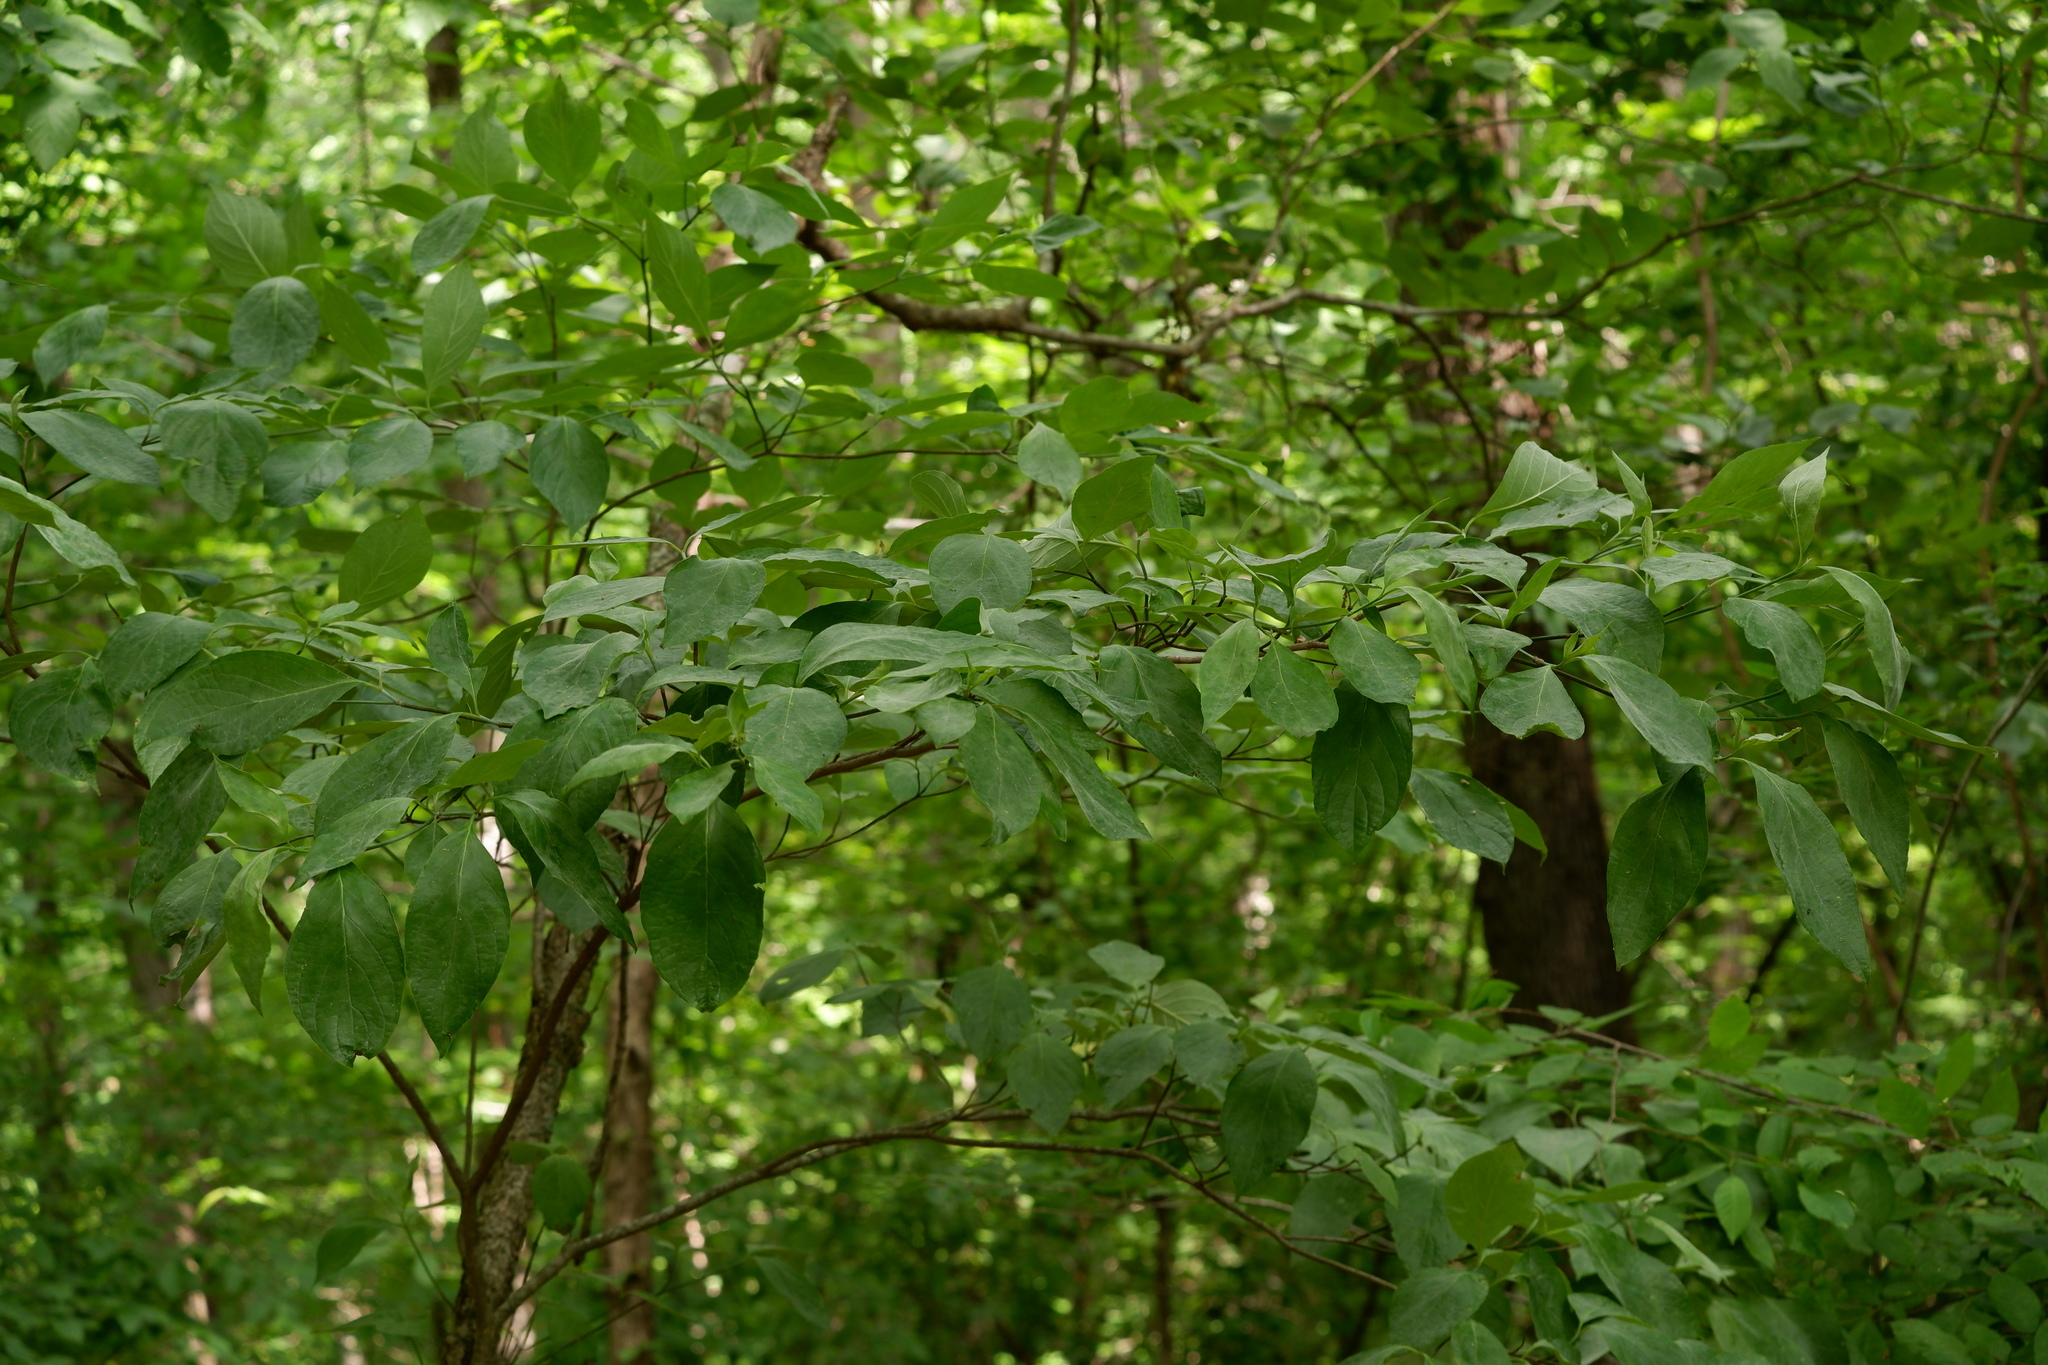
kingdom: Plantae
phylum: Tracheophyta
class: Magnoliopsida
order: Cornales
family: Cornaceae
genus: Cornus
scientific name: Cornus florida
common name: Flowering dogwood
